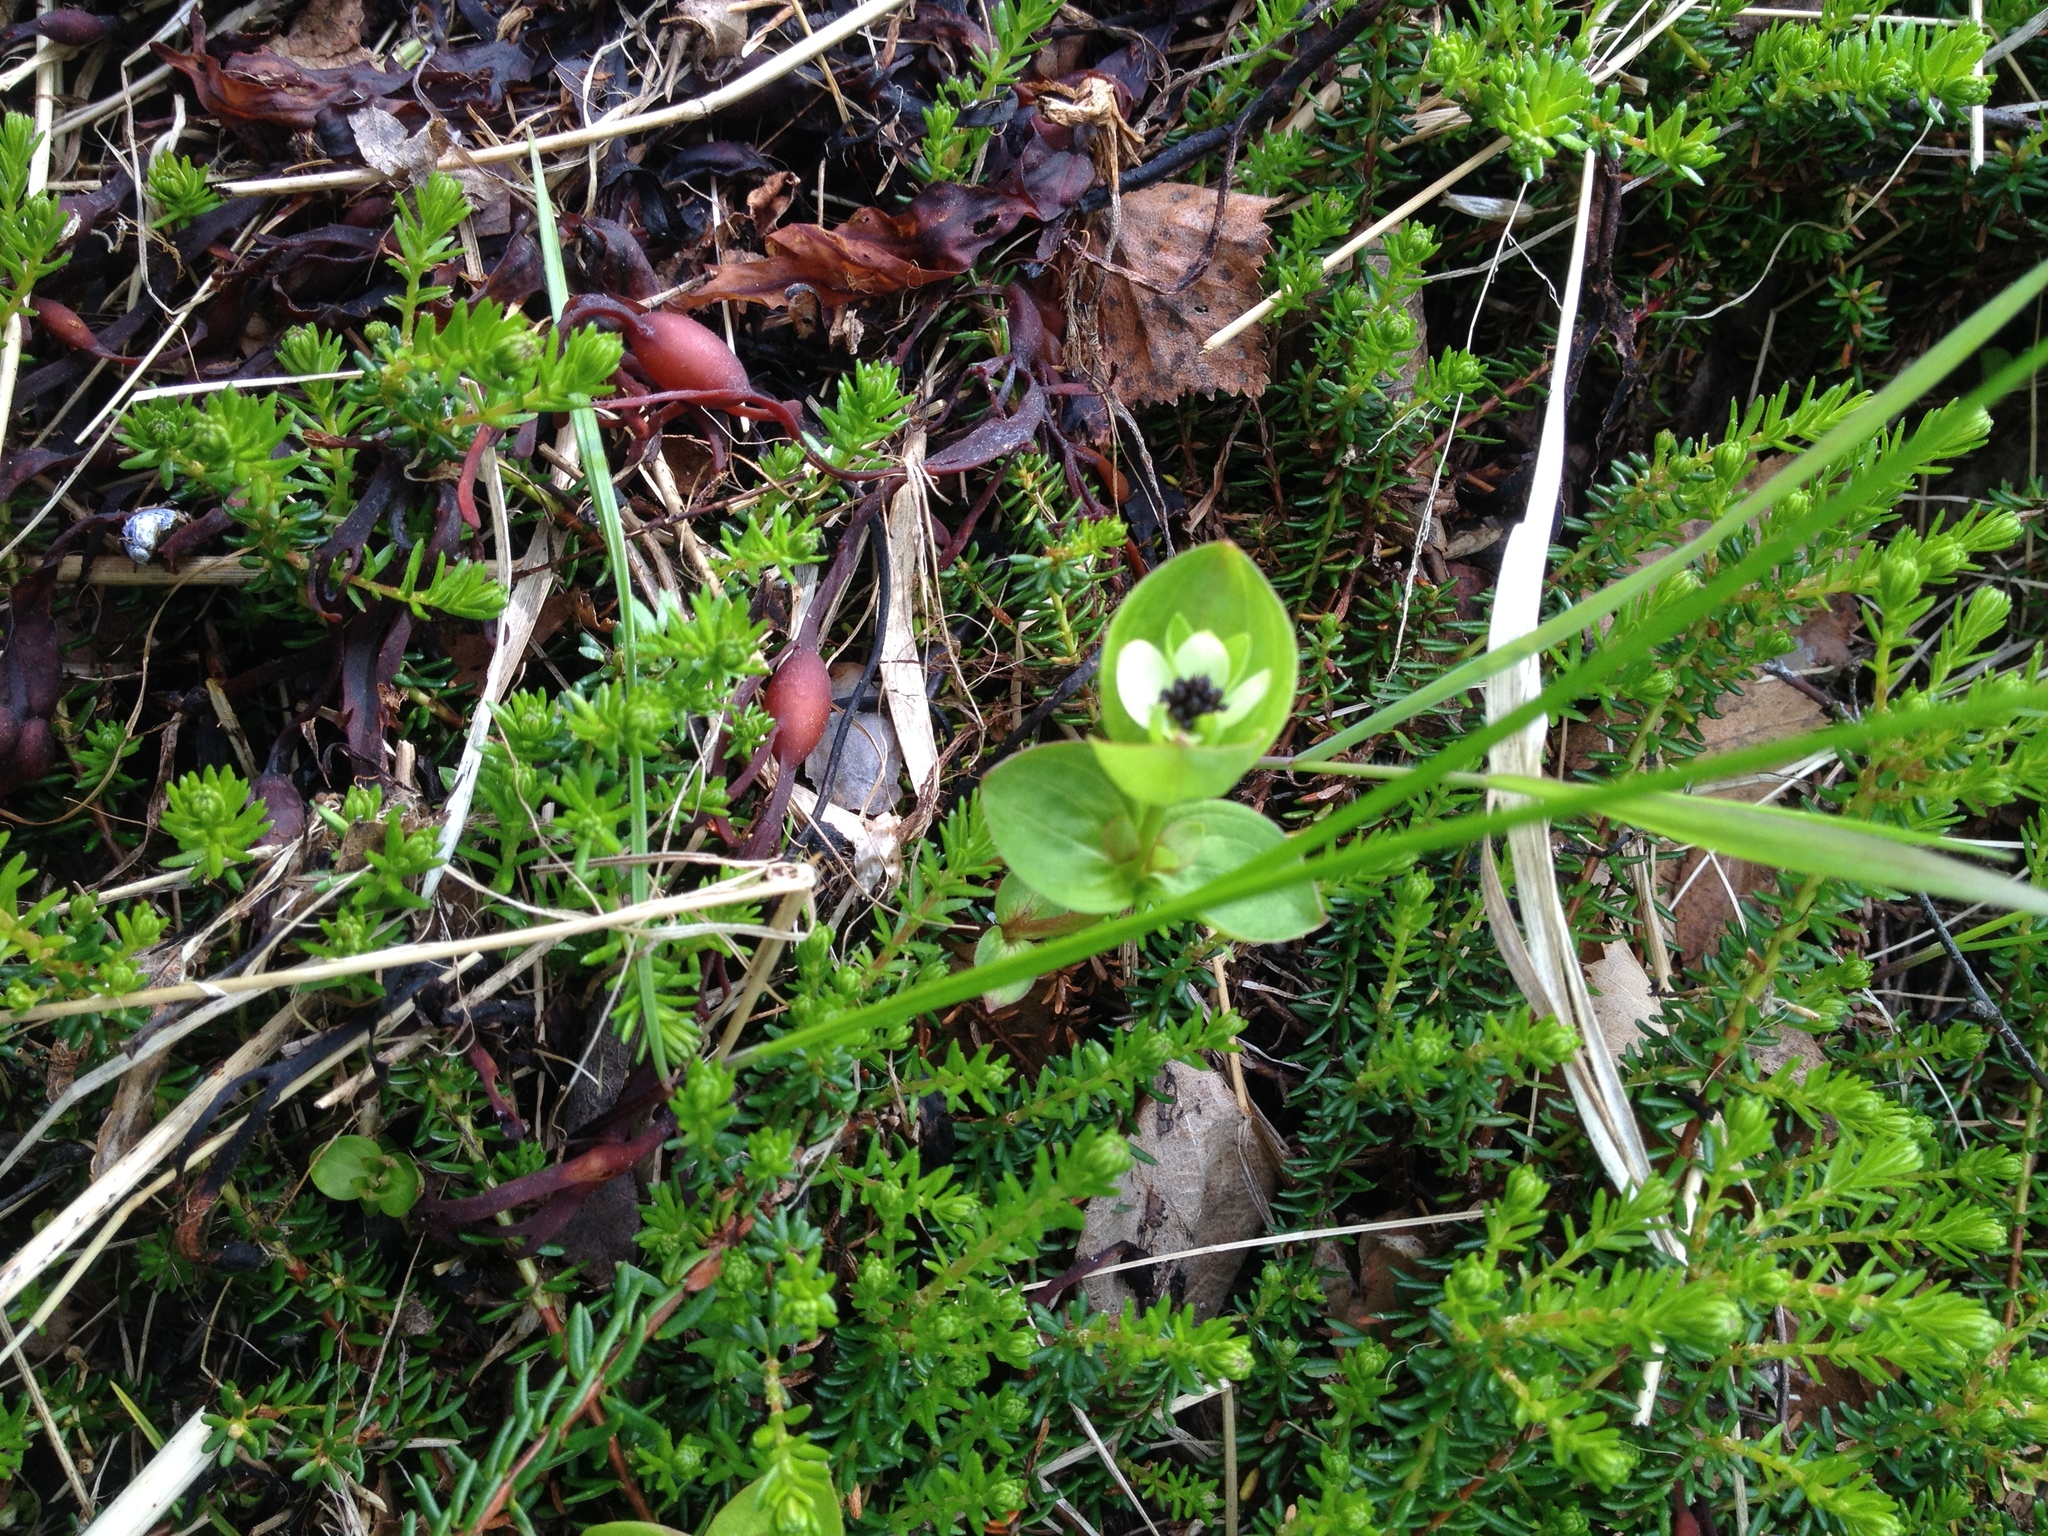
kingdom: Plantae
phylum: Tracheophyta
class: Magnoliopsida
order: Cornales
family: Cornaceae
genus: Cornus
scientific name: Cornus suecica
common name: Dwarf cornel
